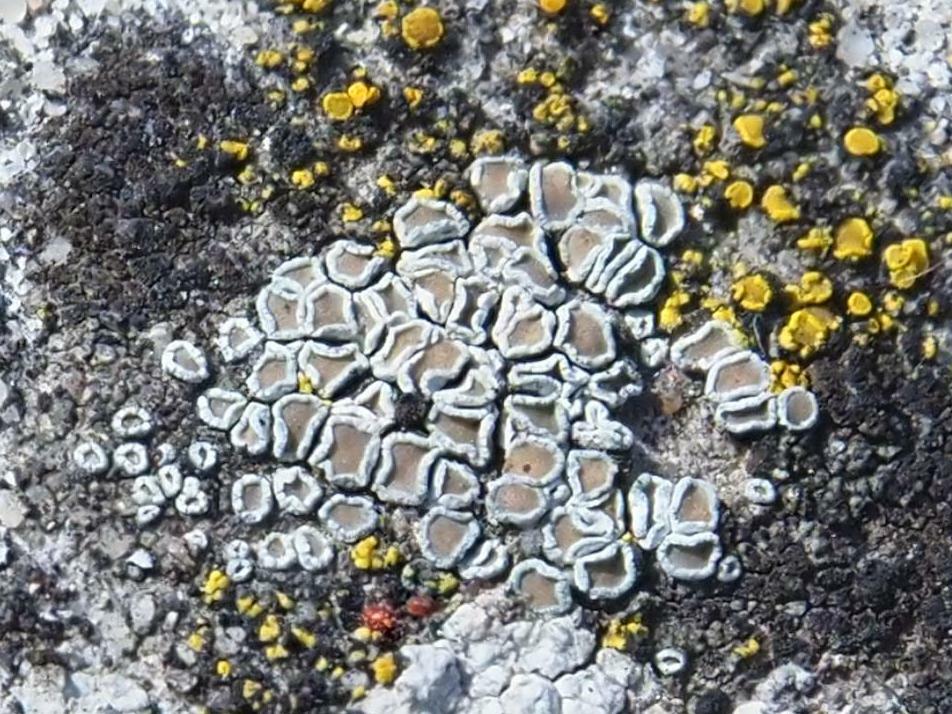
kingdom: Fungi
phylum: Ascomycota
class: Lecanoromycetes
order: Lecanorales
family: Lecanoraceae
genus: Polyozosia
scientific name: Polyozosia dispersa
